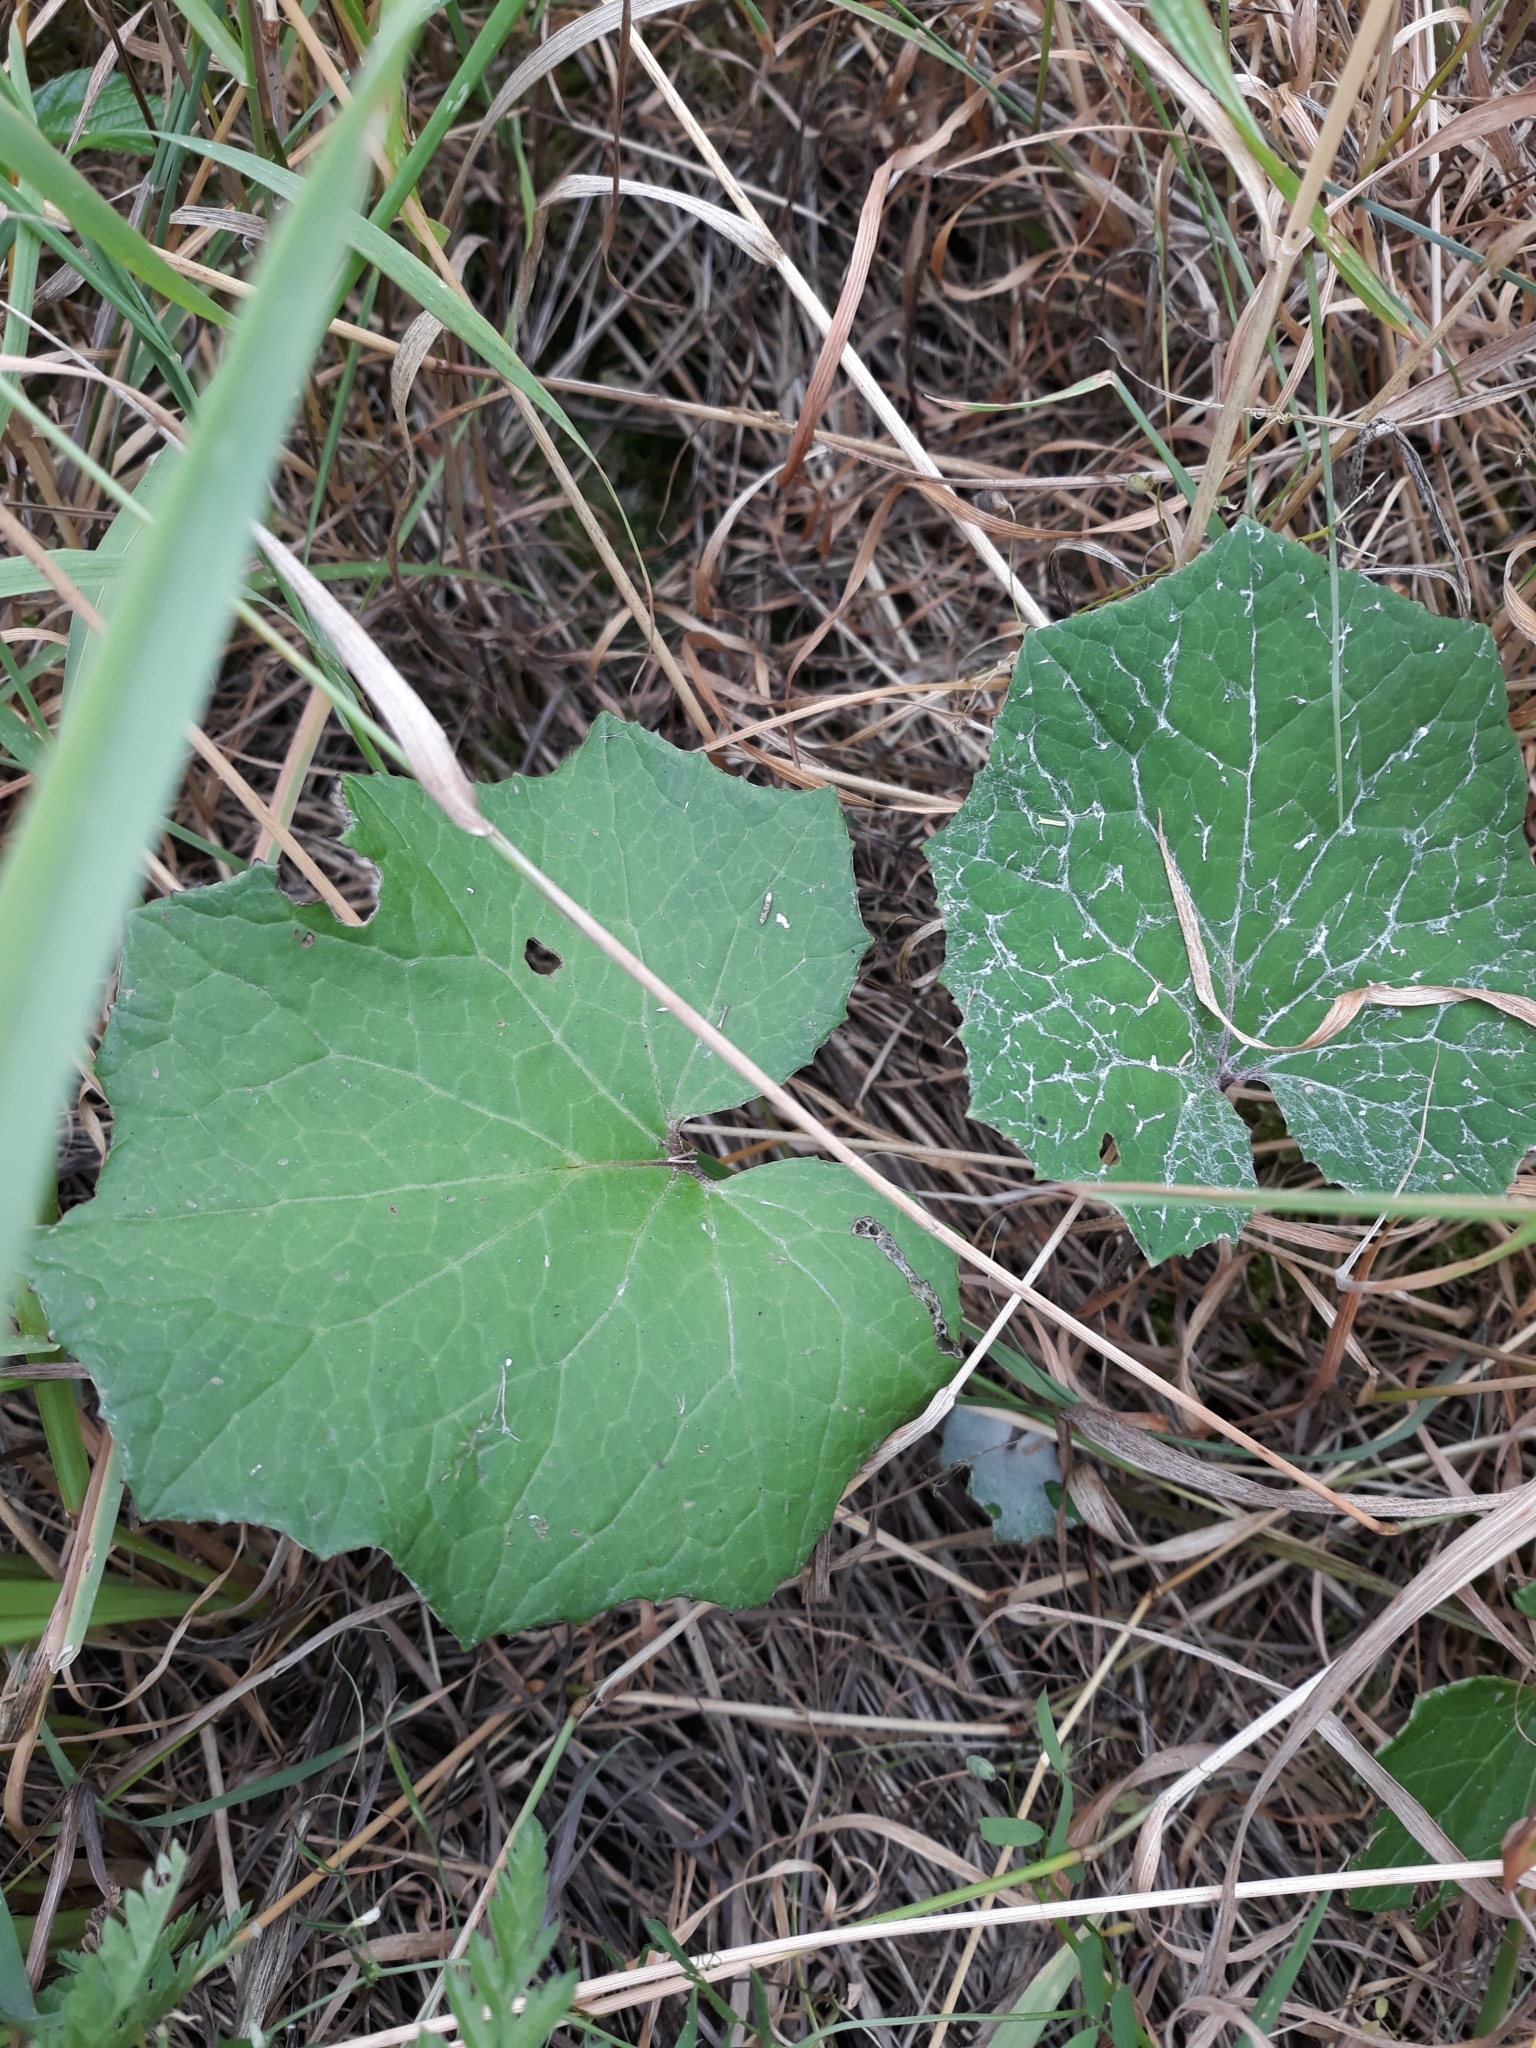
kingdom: Plantae
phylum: Tracheophyta
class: Magnoliopsida
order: Asterales
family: Asteraceae
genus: Tussilago
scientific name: Tussilago farfara
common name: Coltsfoot
